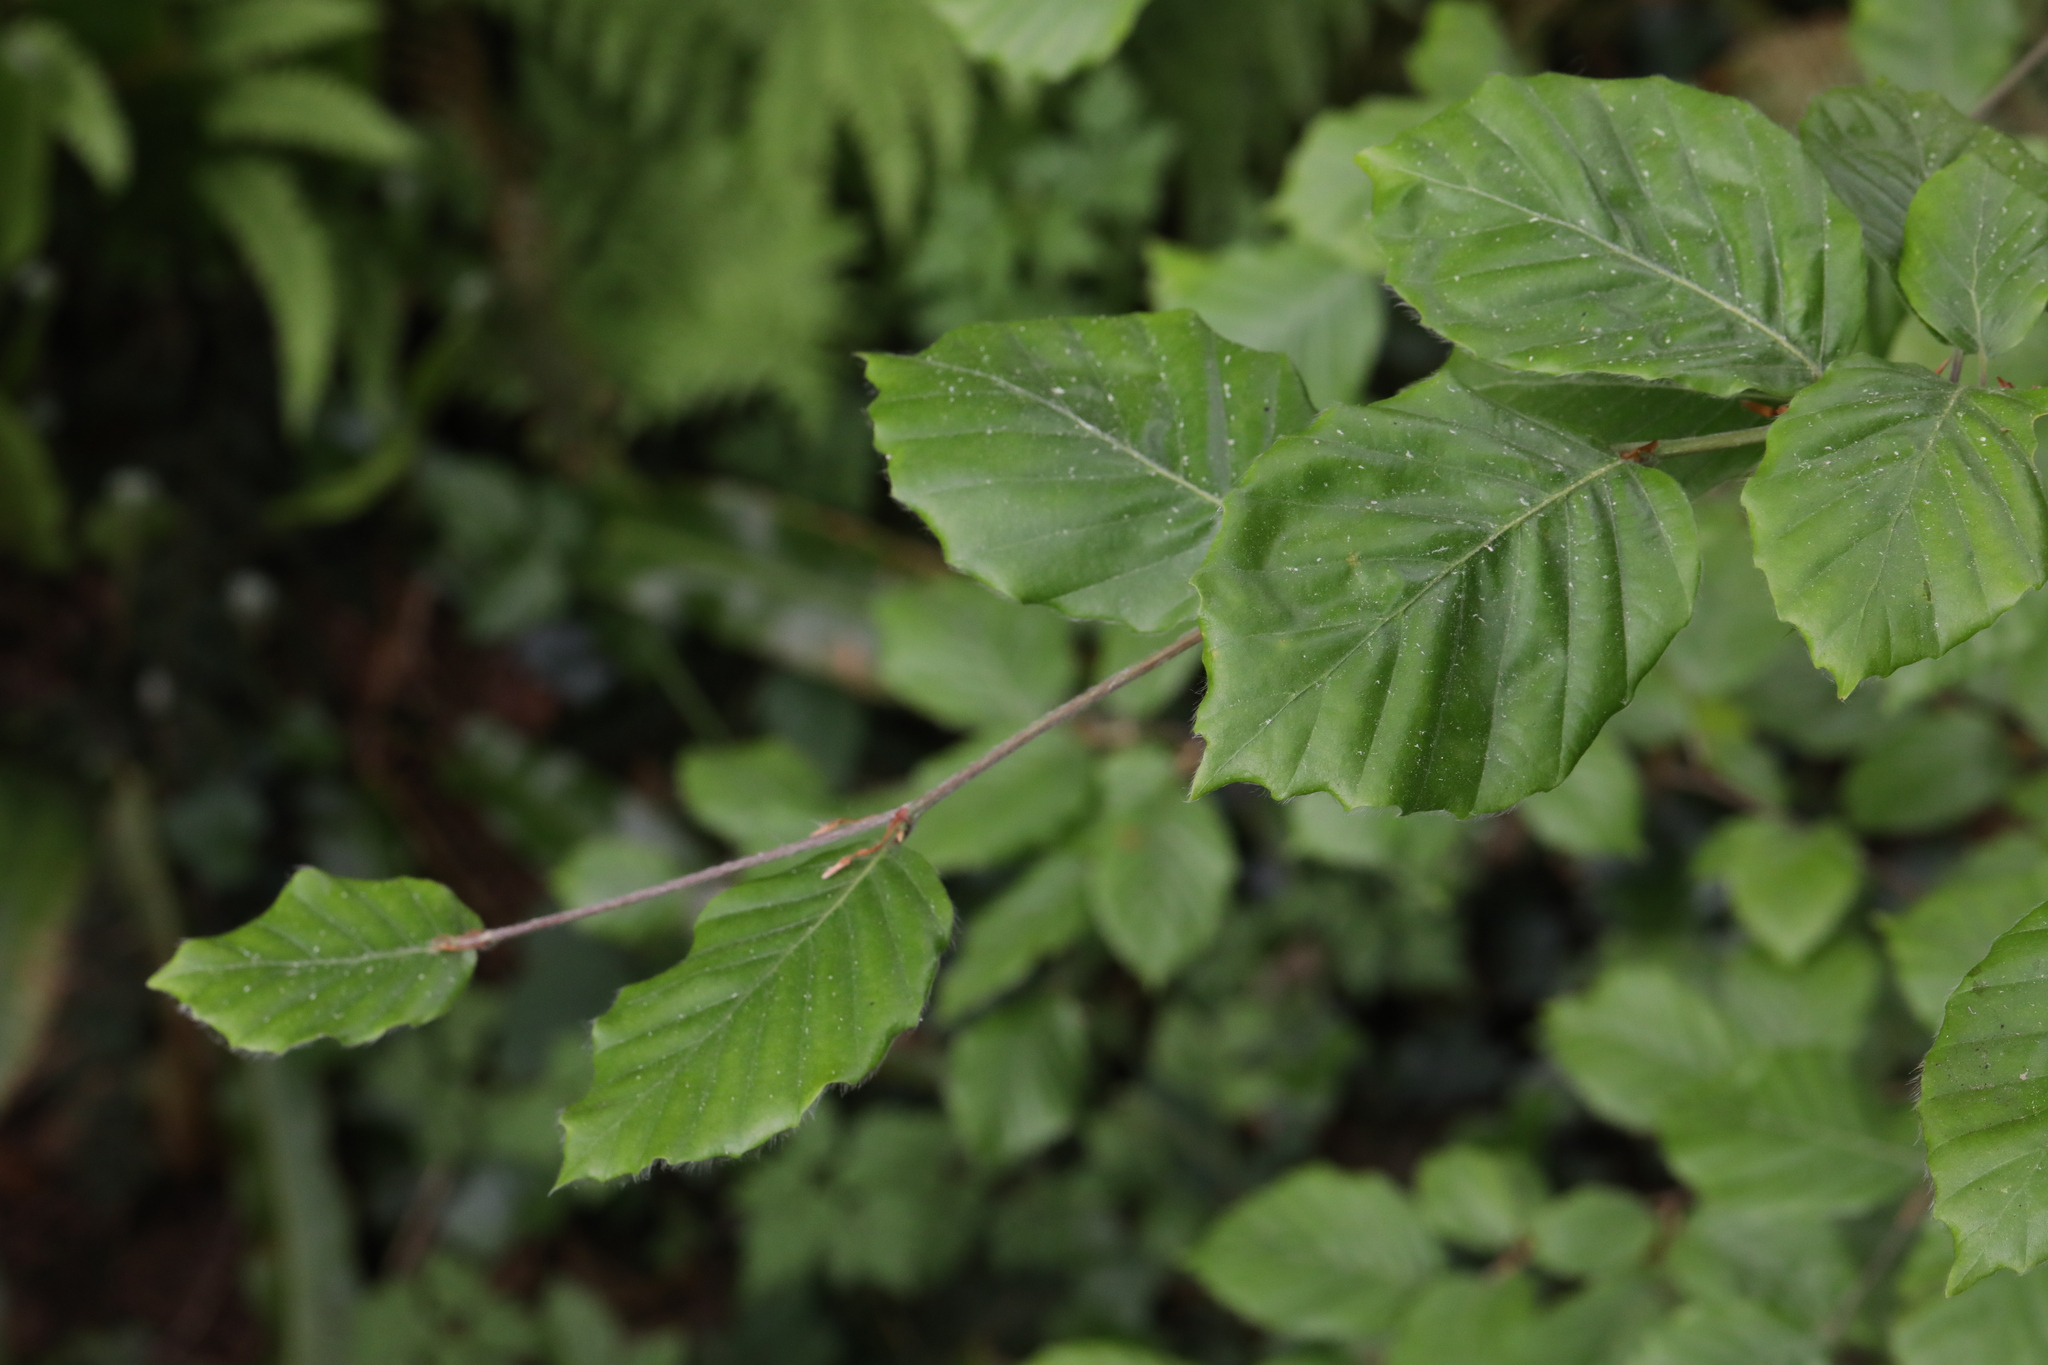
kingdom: Plantae
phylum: Tracheophyta
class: Magnoliopsida
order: Fagales
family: Fagaceae
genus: Fagus
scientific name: Fagus sylvatica
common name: Beech
